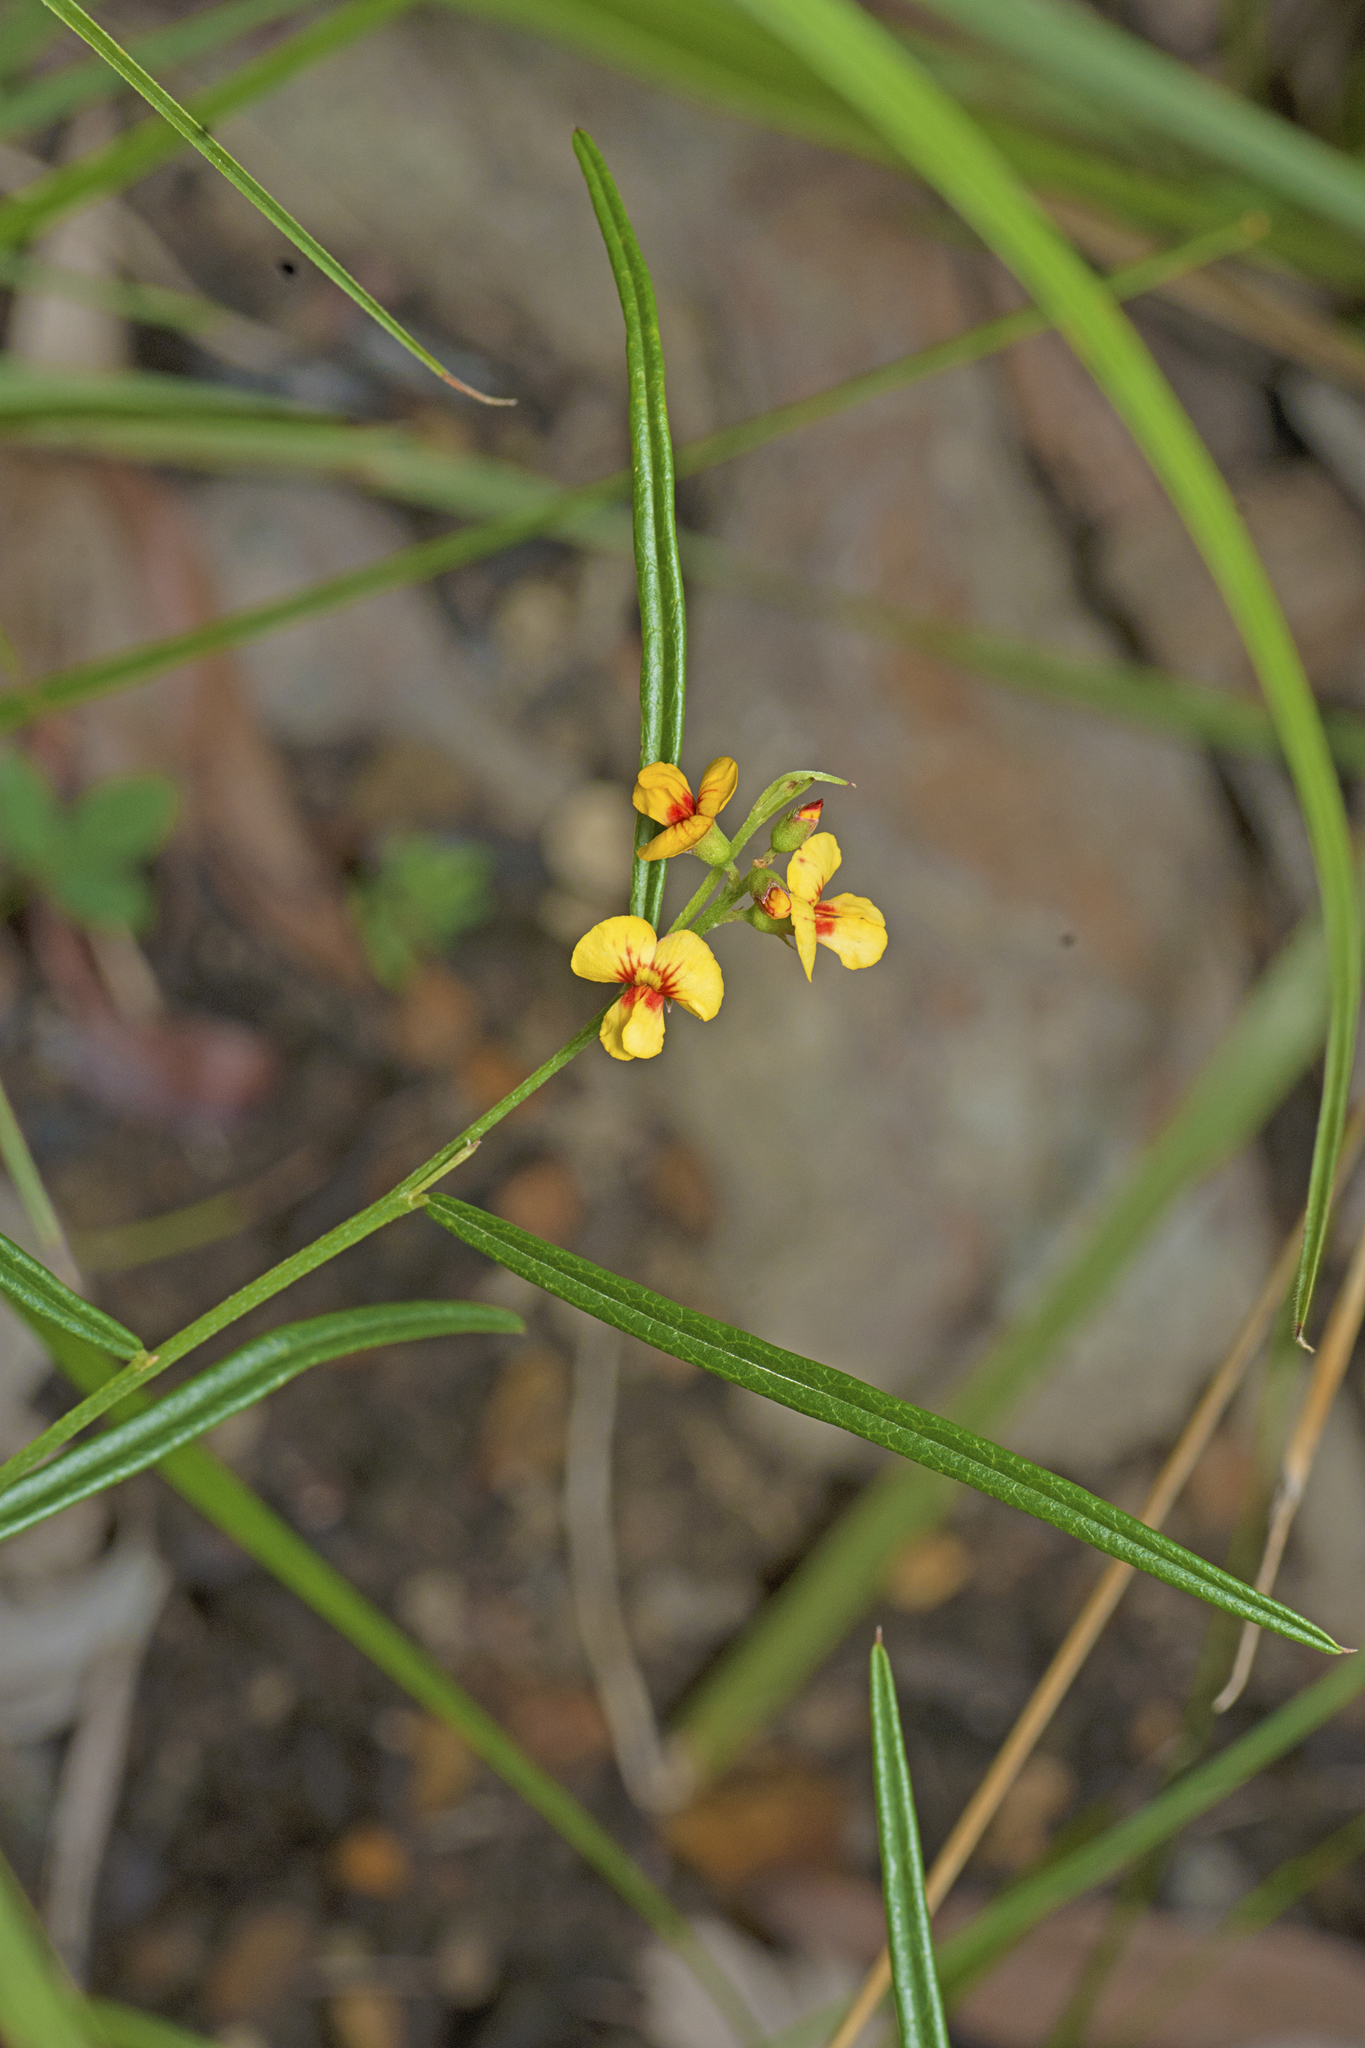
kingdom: Plantae
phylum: Tracheophyta
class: Magnoliopsida
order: Fabales
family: Fabaceae
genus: Chorizema
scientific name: Chorizema parviflorum
